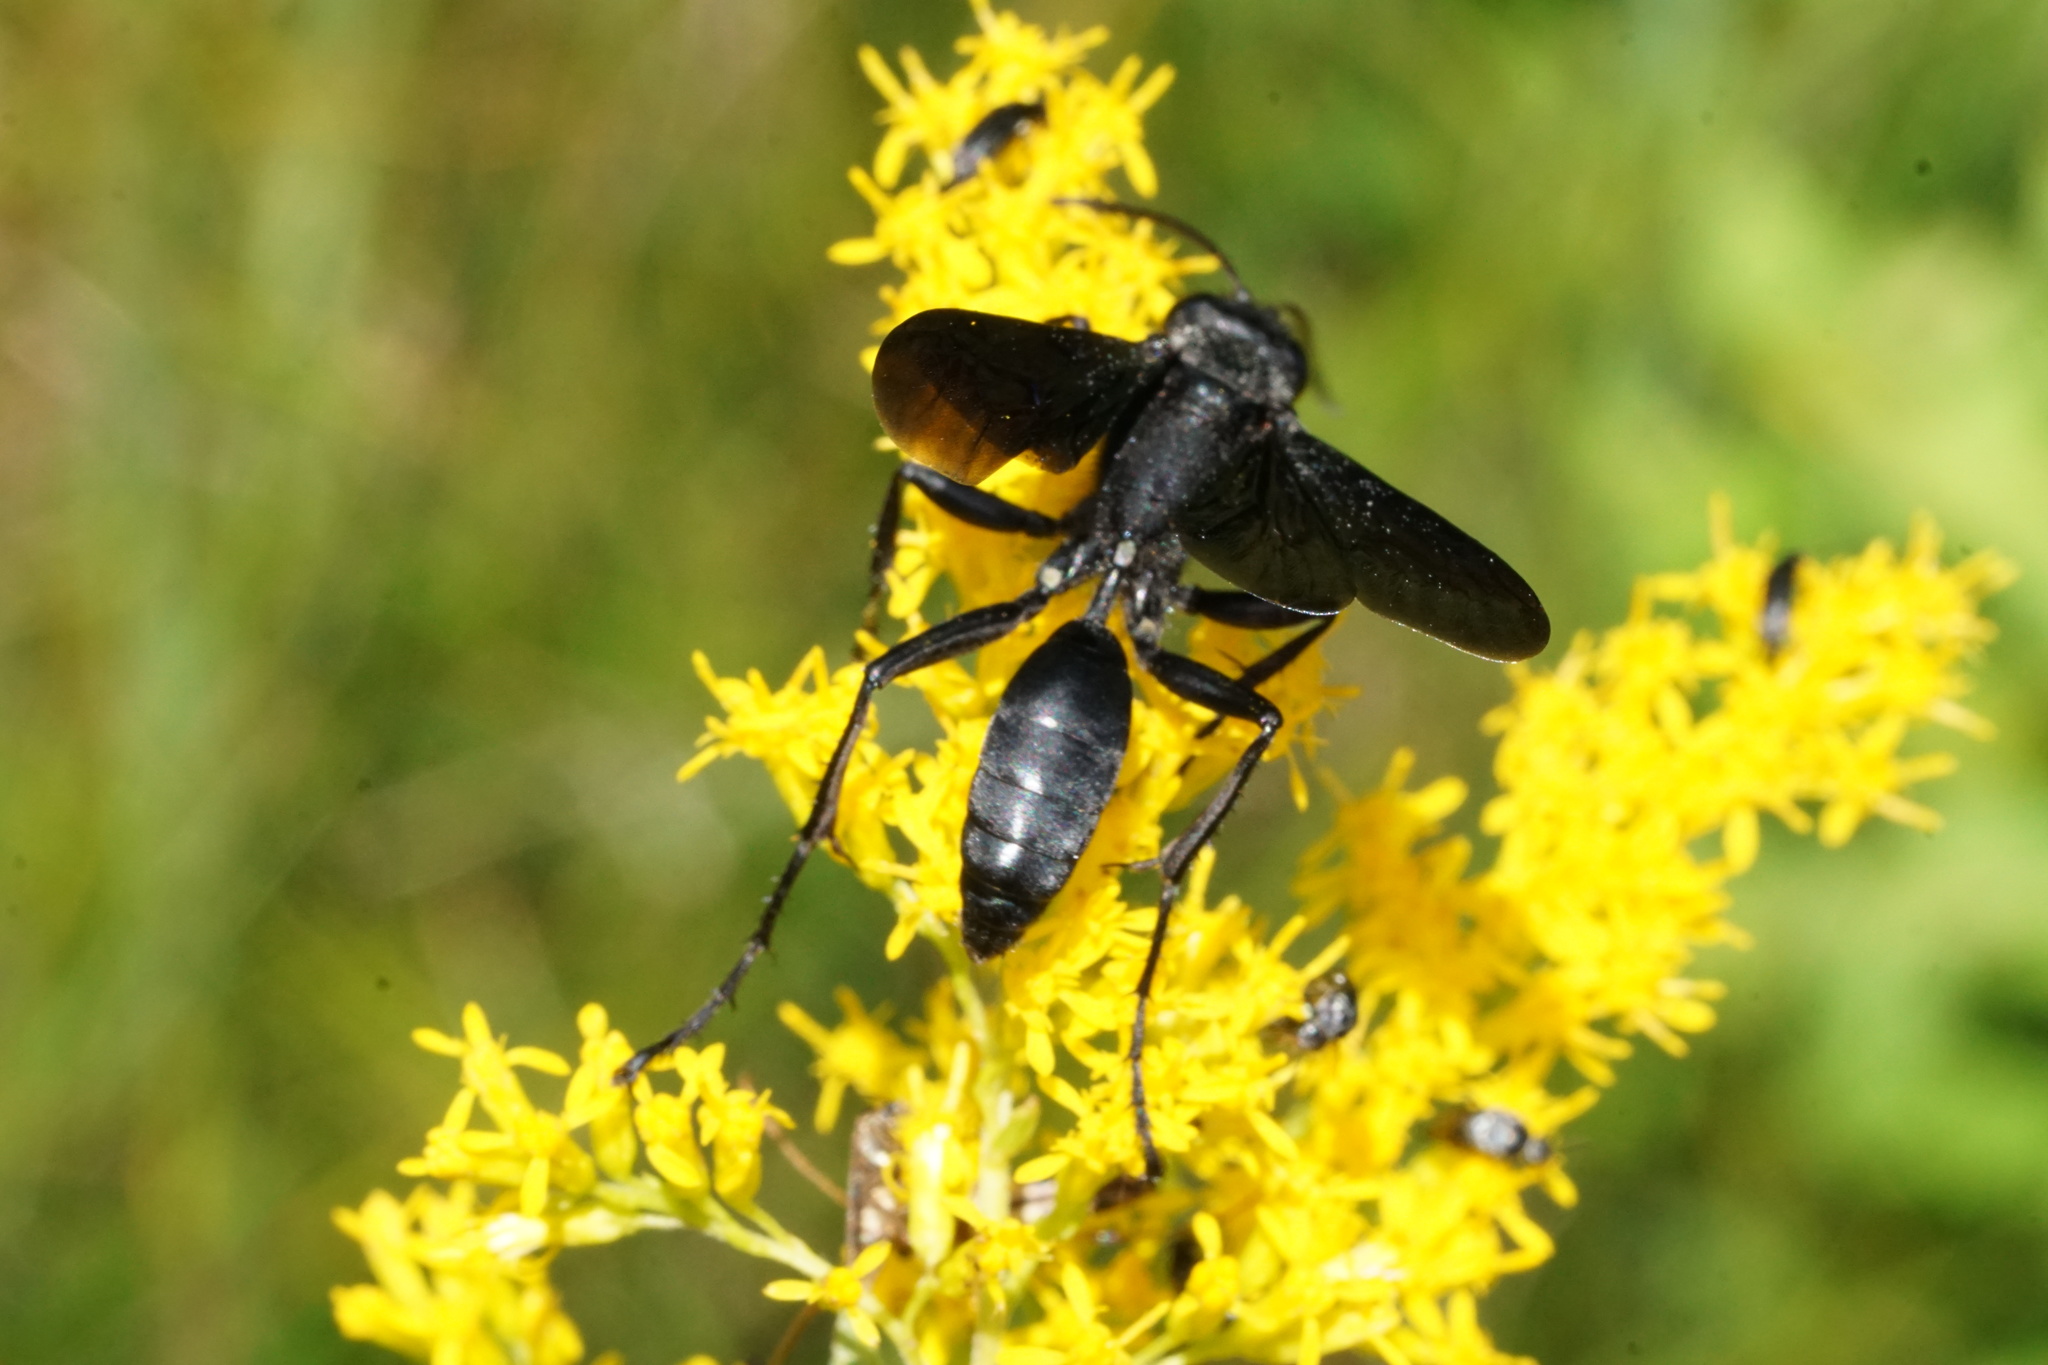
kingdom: Animalia
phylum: Arthropoda
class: Insecta
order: Hymenoptera
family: Sphecidae
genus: Sphex
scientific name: Sphex pensylvanicus
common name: Great black digger wasp
